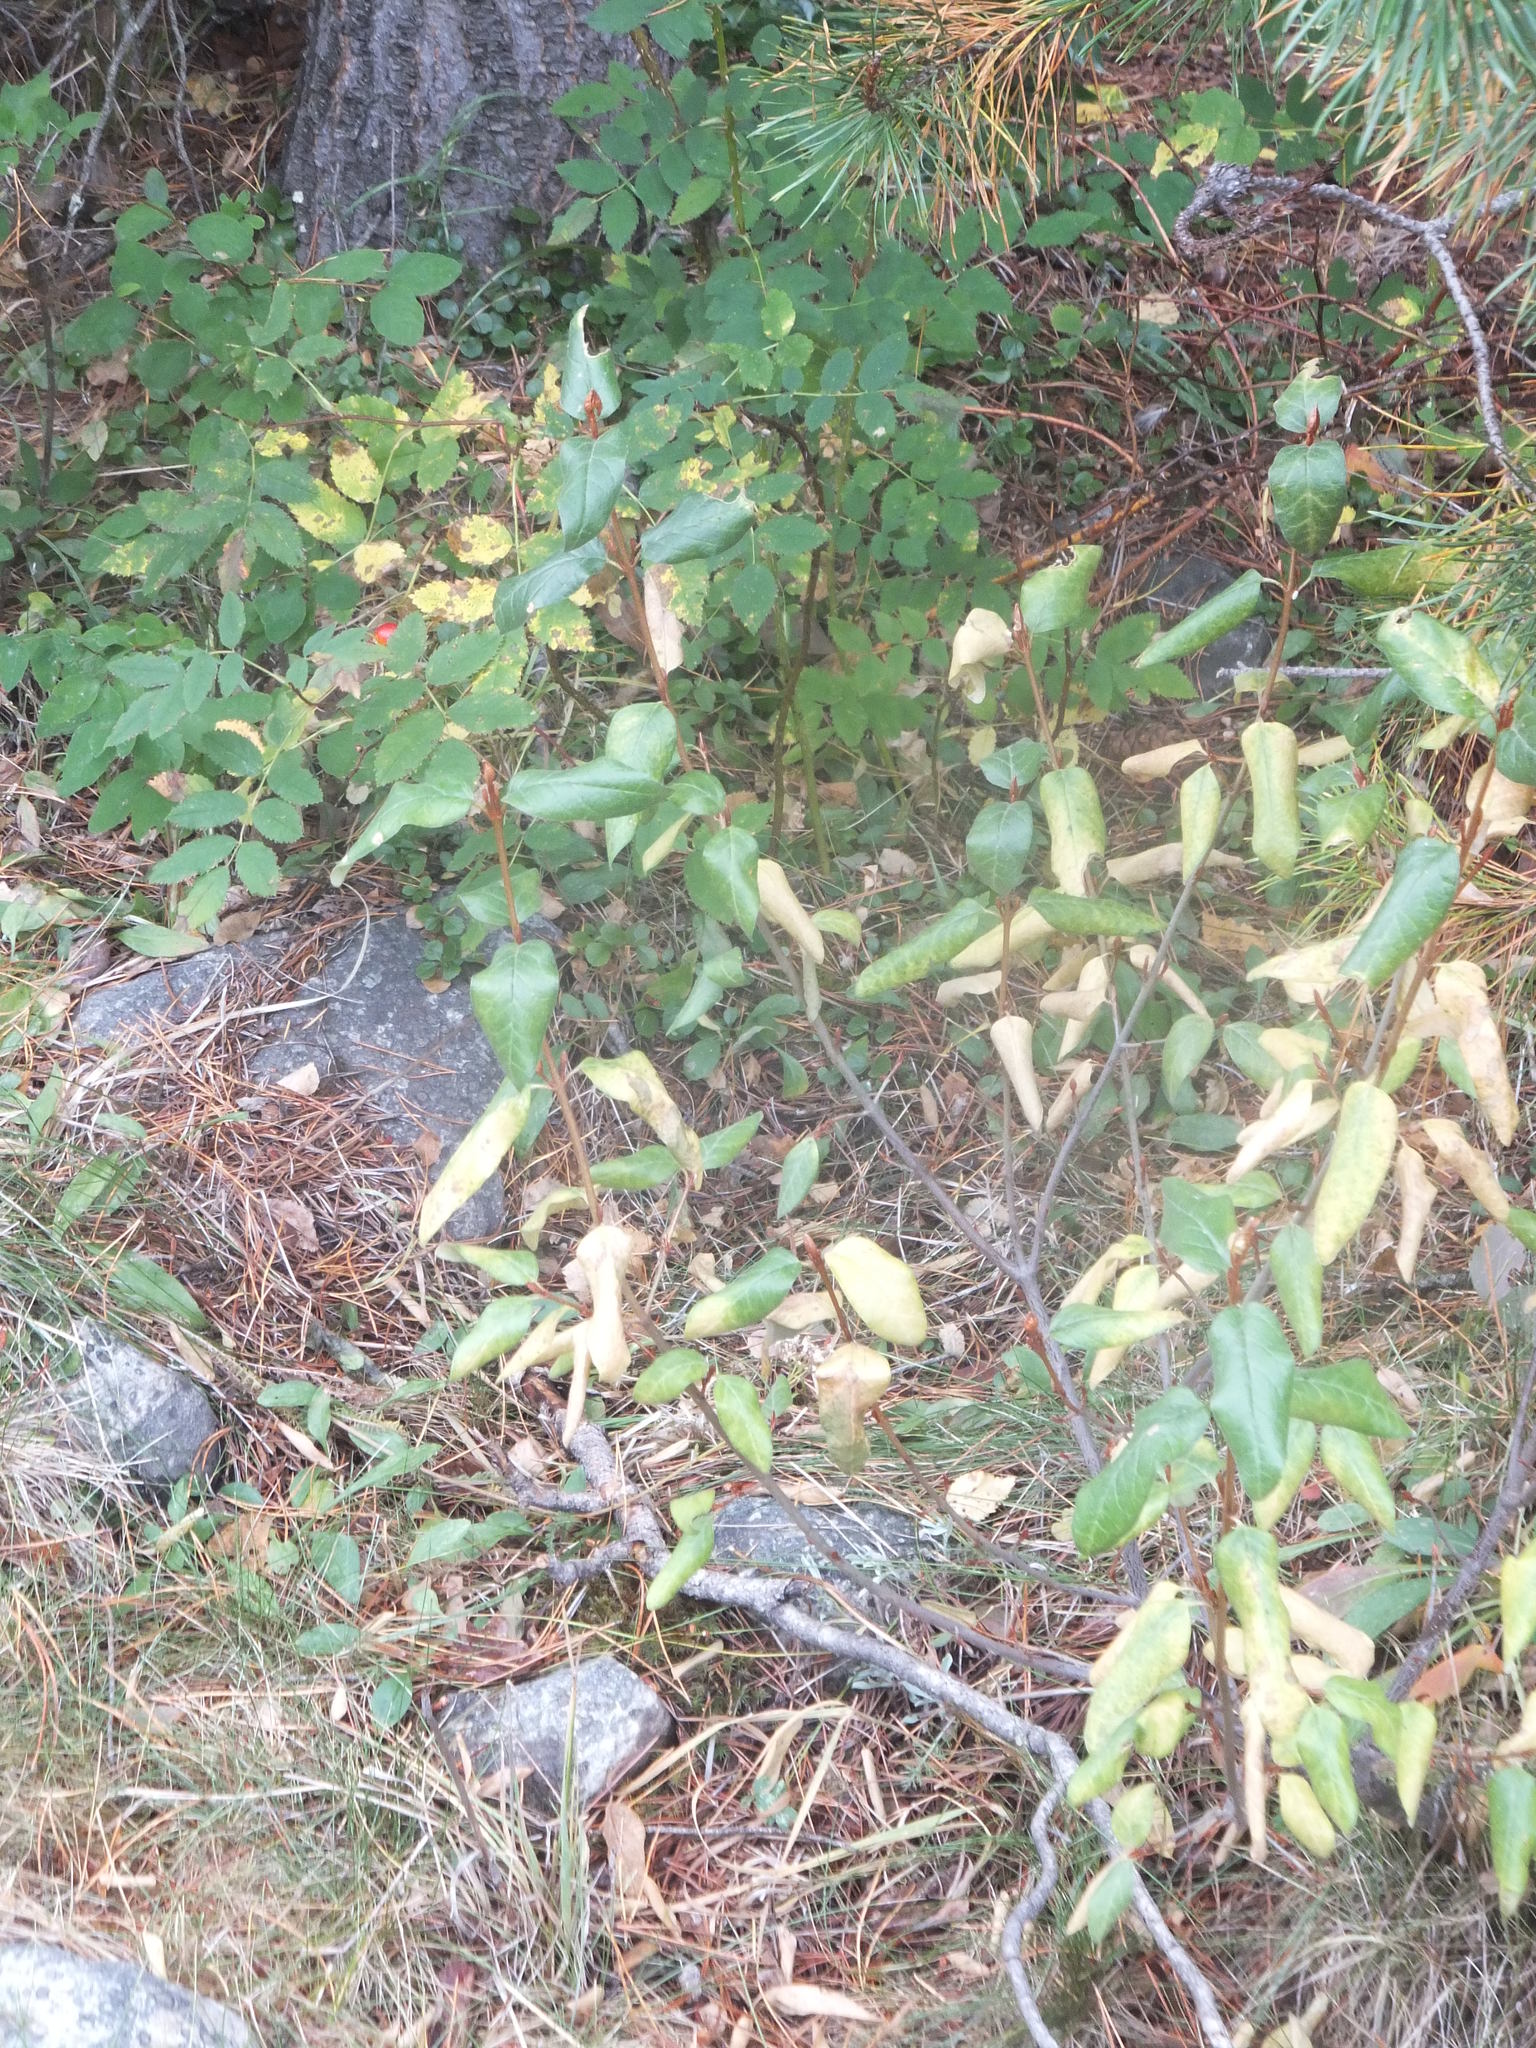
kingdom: Plantae
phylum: Tracheophyta
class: Magnoliopsida
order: Rosales
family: Elaeagnaceae
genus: Shepherdia
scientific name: Shepherdia canadensis
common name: Soapberry
